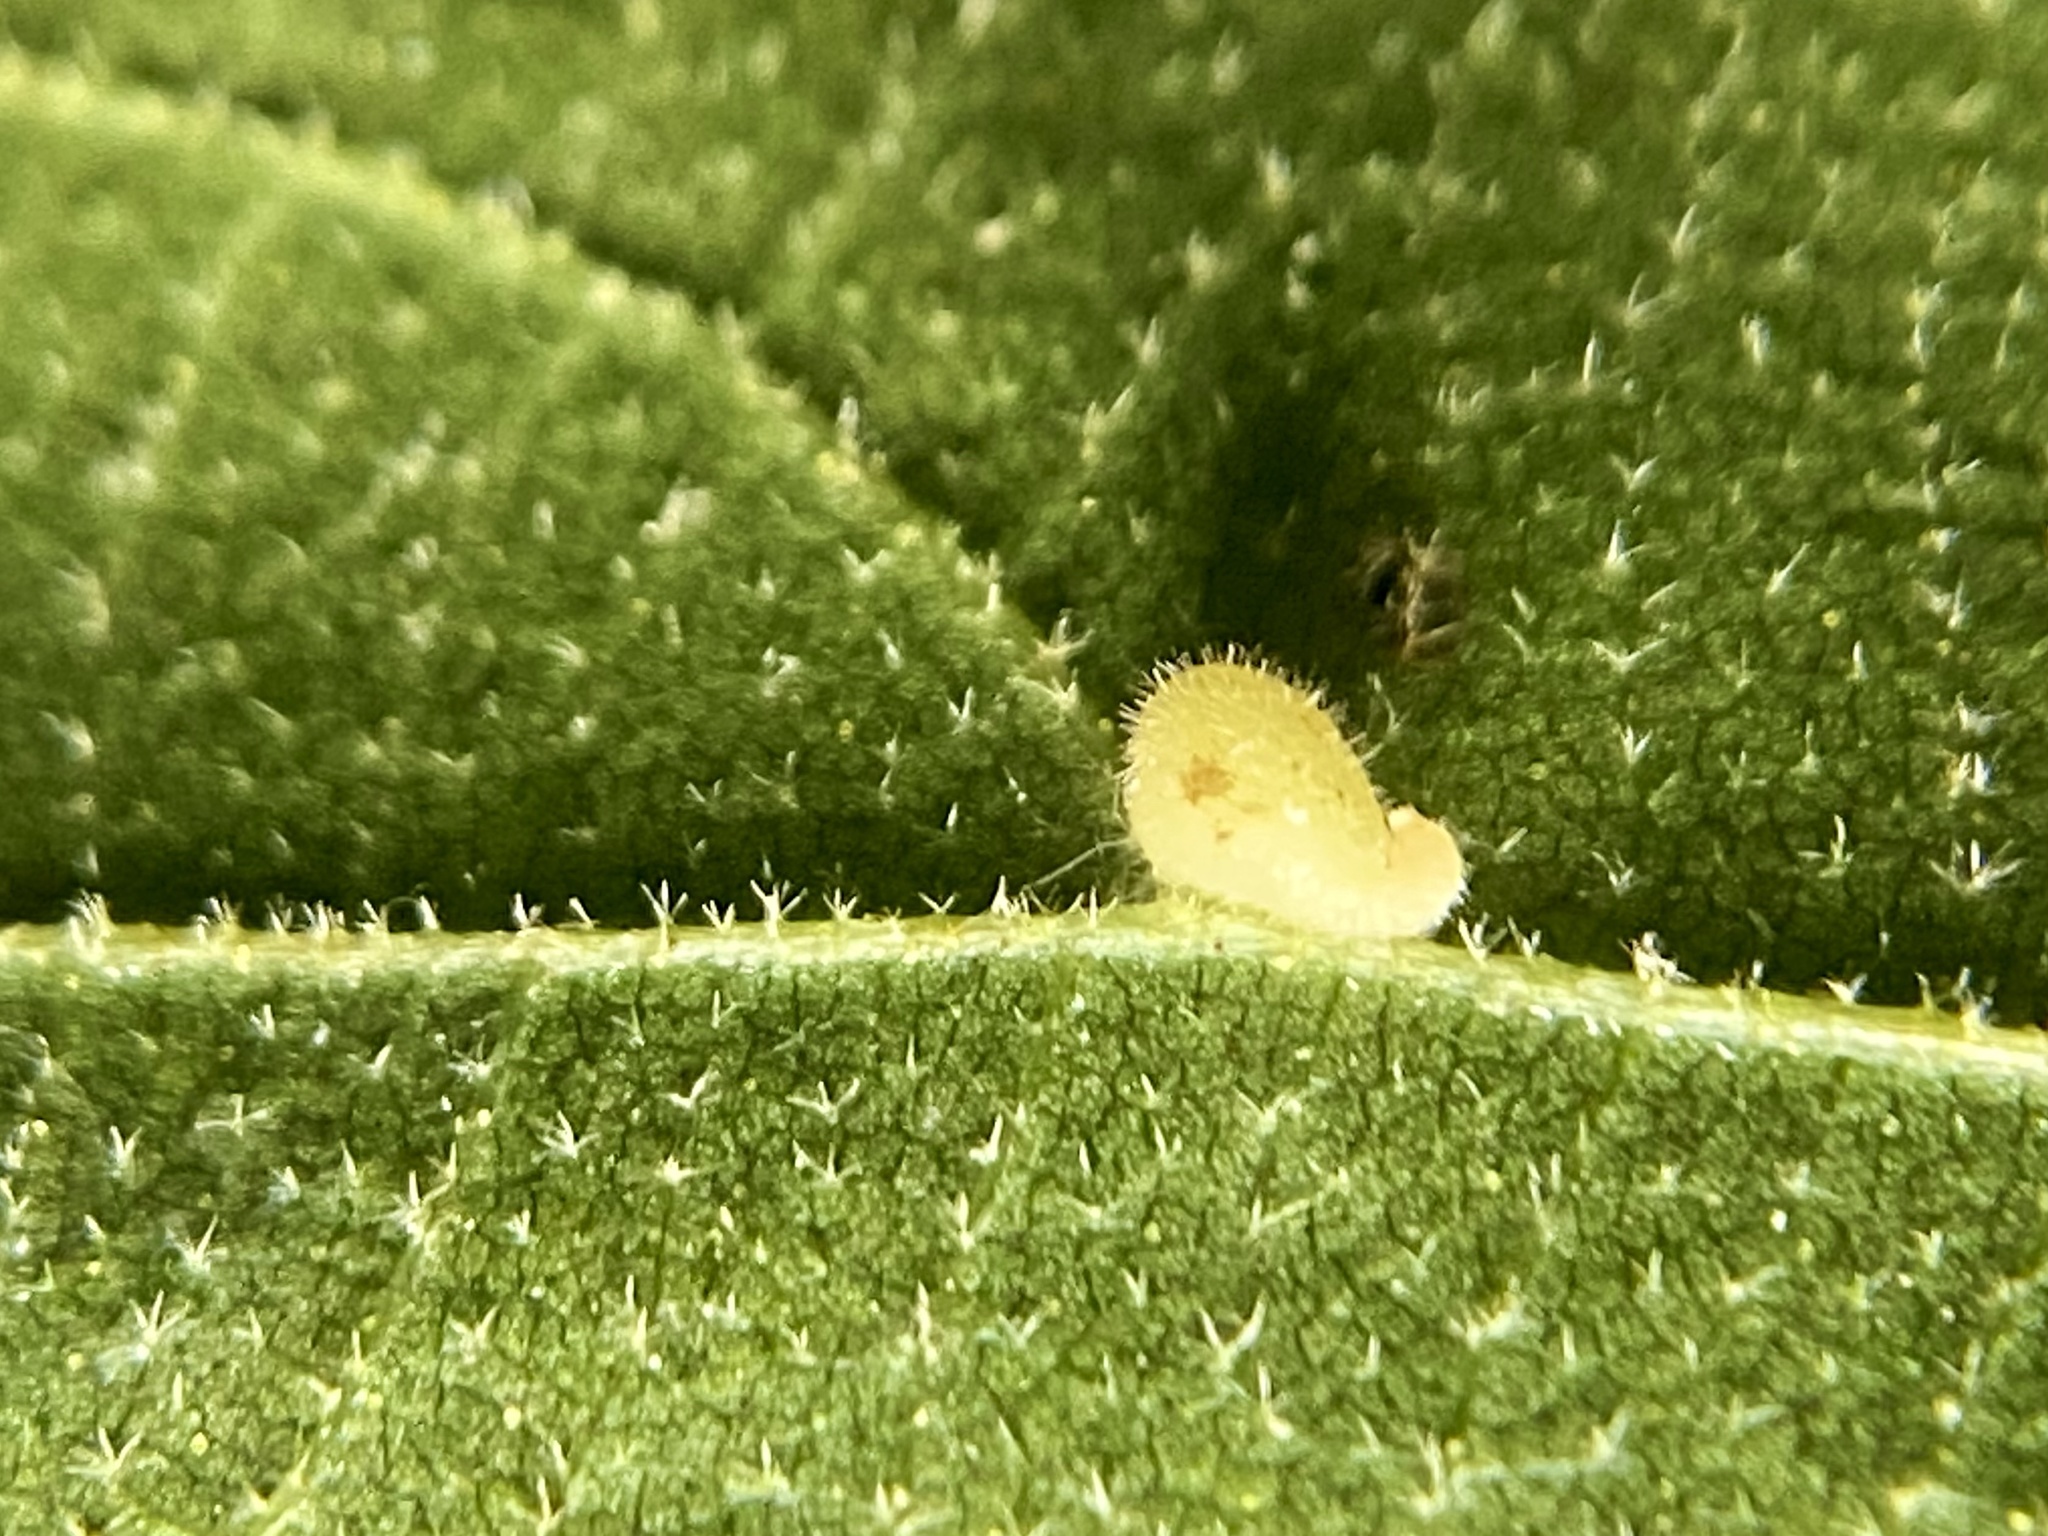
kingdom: Animalia
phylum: Arthropoda
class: Insecta
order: Diptera
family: Cecidomyiidae
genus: Caryomyia
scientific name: Caryomyia eumaris
